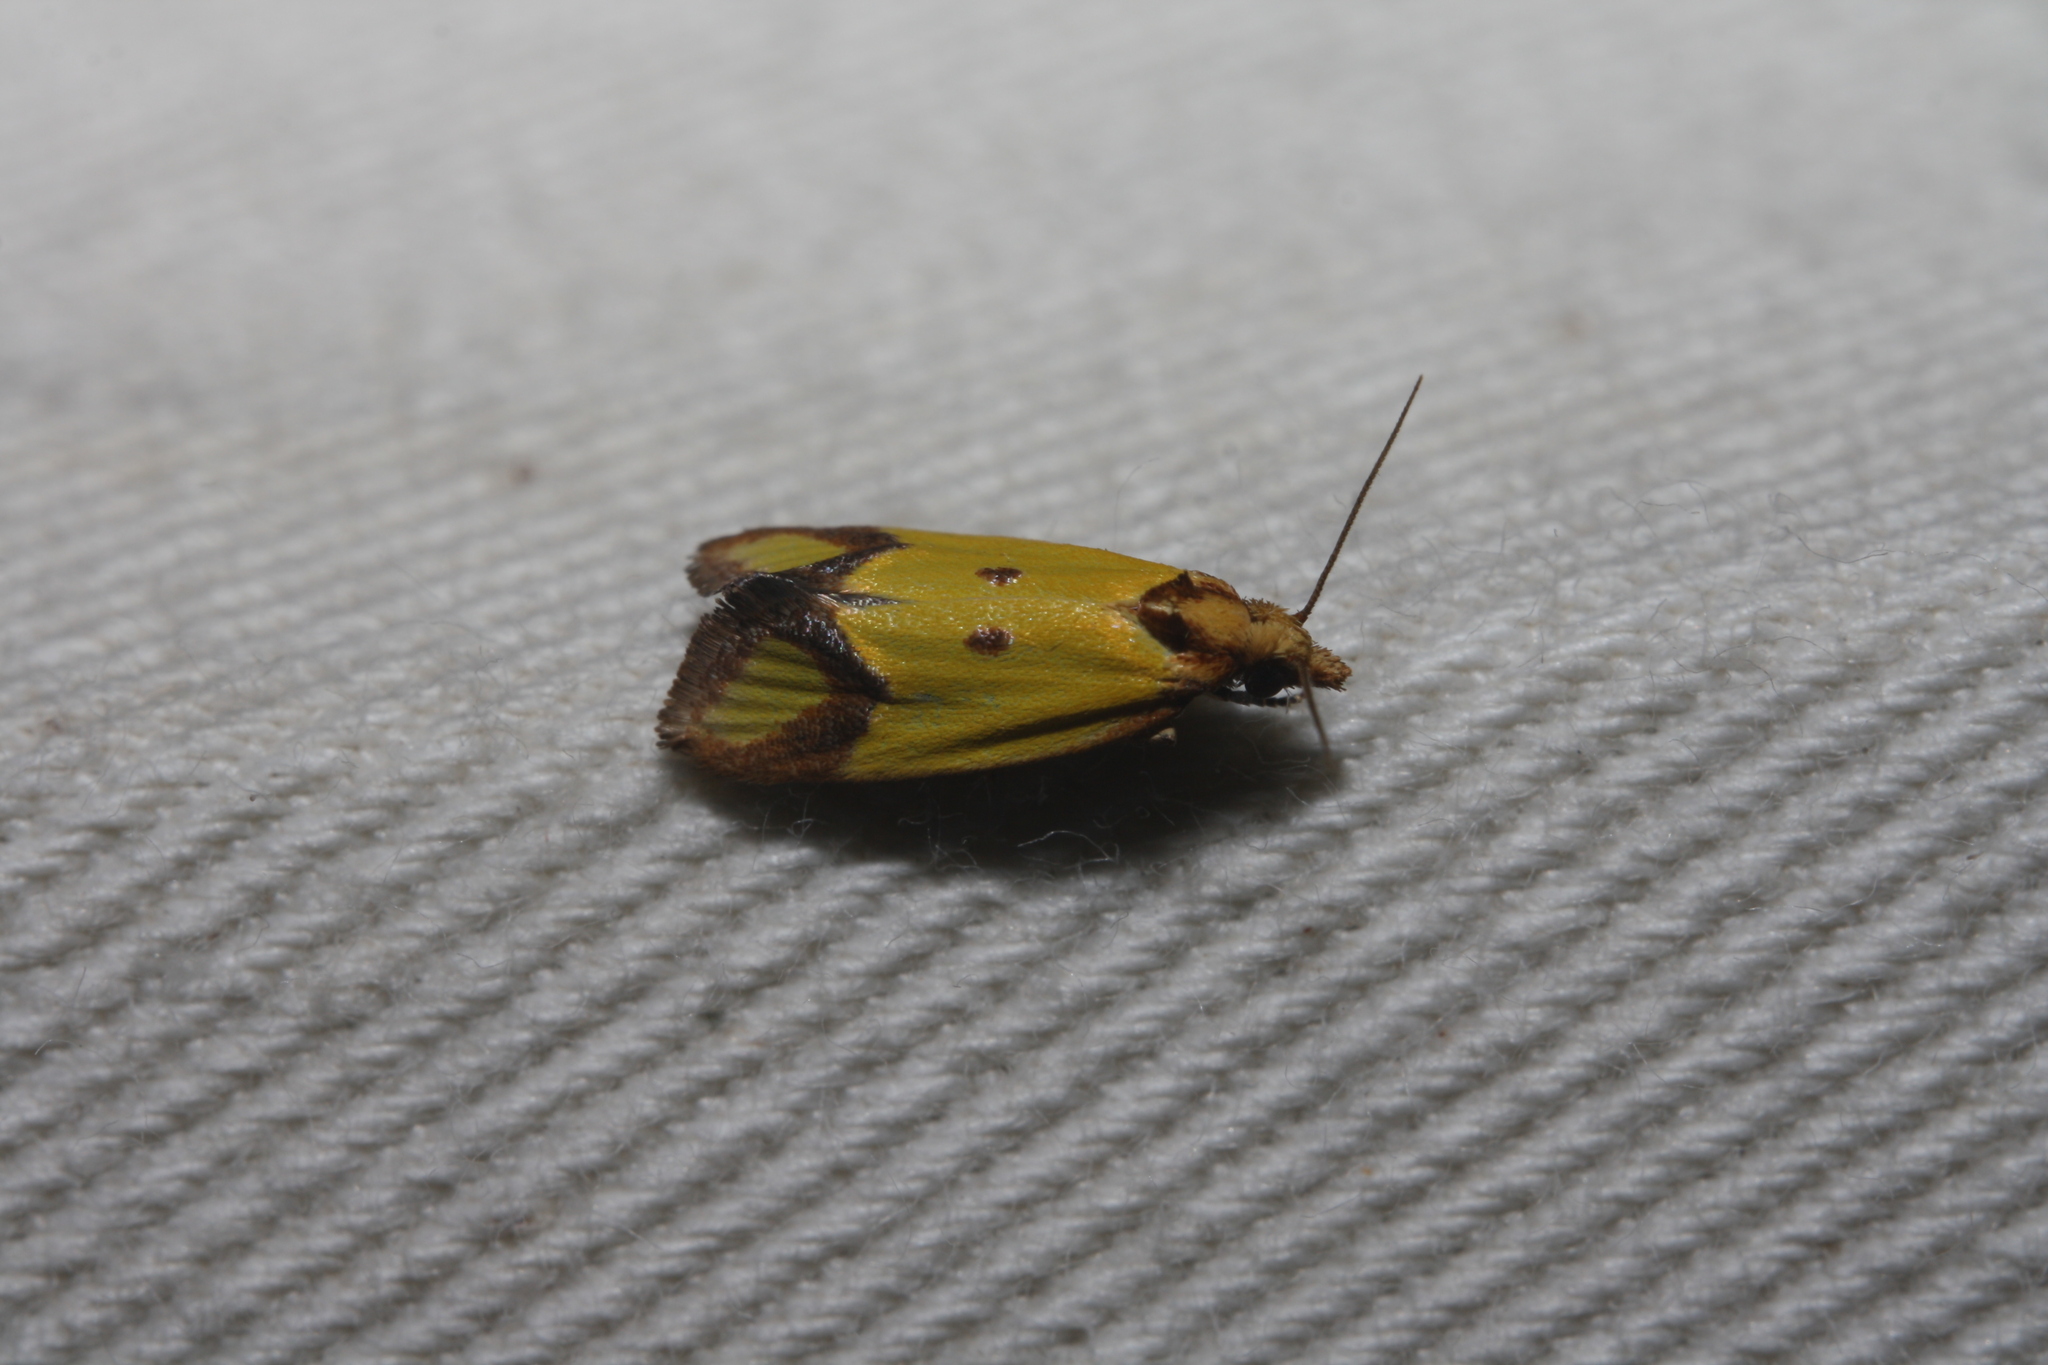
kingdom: Animalia
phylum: Arthropoda
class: Insecta
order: Lepidoptera
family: Tortricidae
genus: Agapeta
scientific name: Agapeta zoegana
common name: Sulfur knapweed root moth
